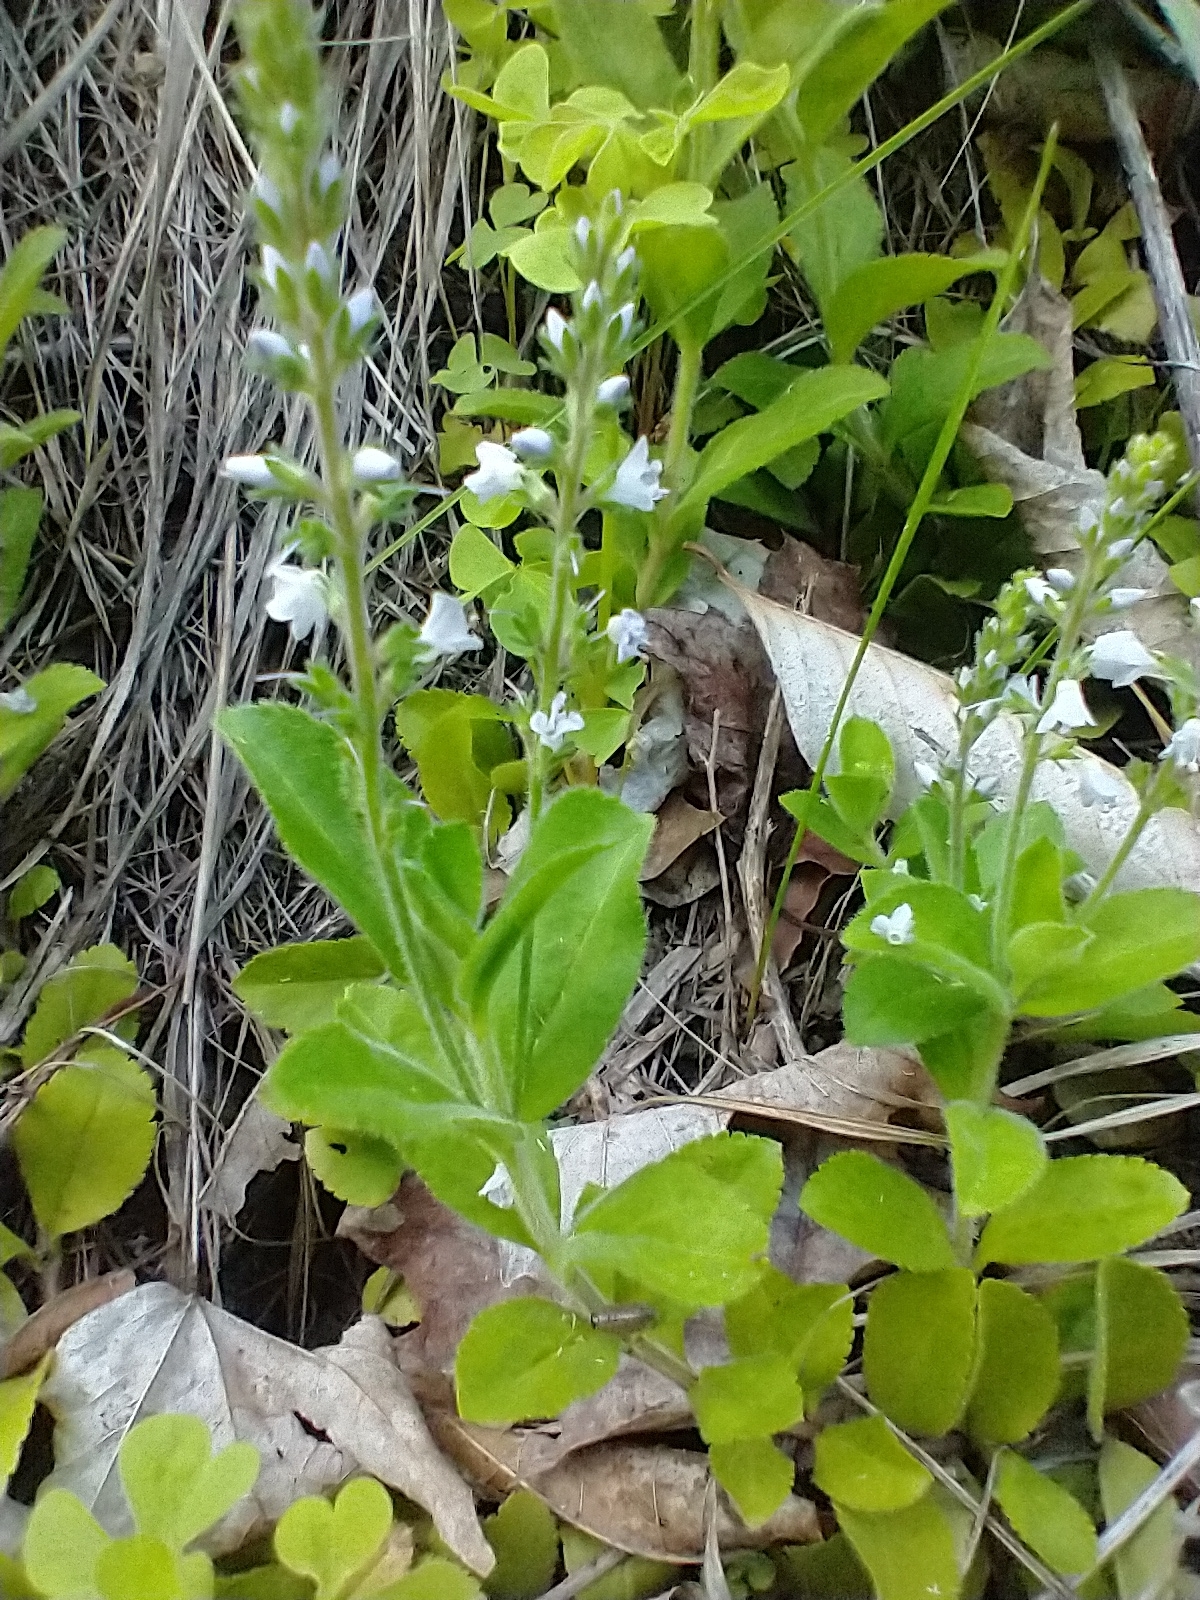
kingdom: Plantae
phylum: Tracheophyta
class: Magnoliopsida
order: Lamiales
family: Plantaginaceae
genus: Veronica
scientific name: Veronica officinalis
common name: Common speedwell
